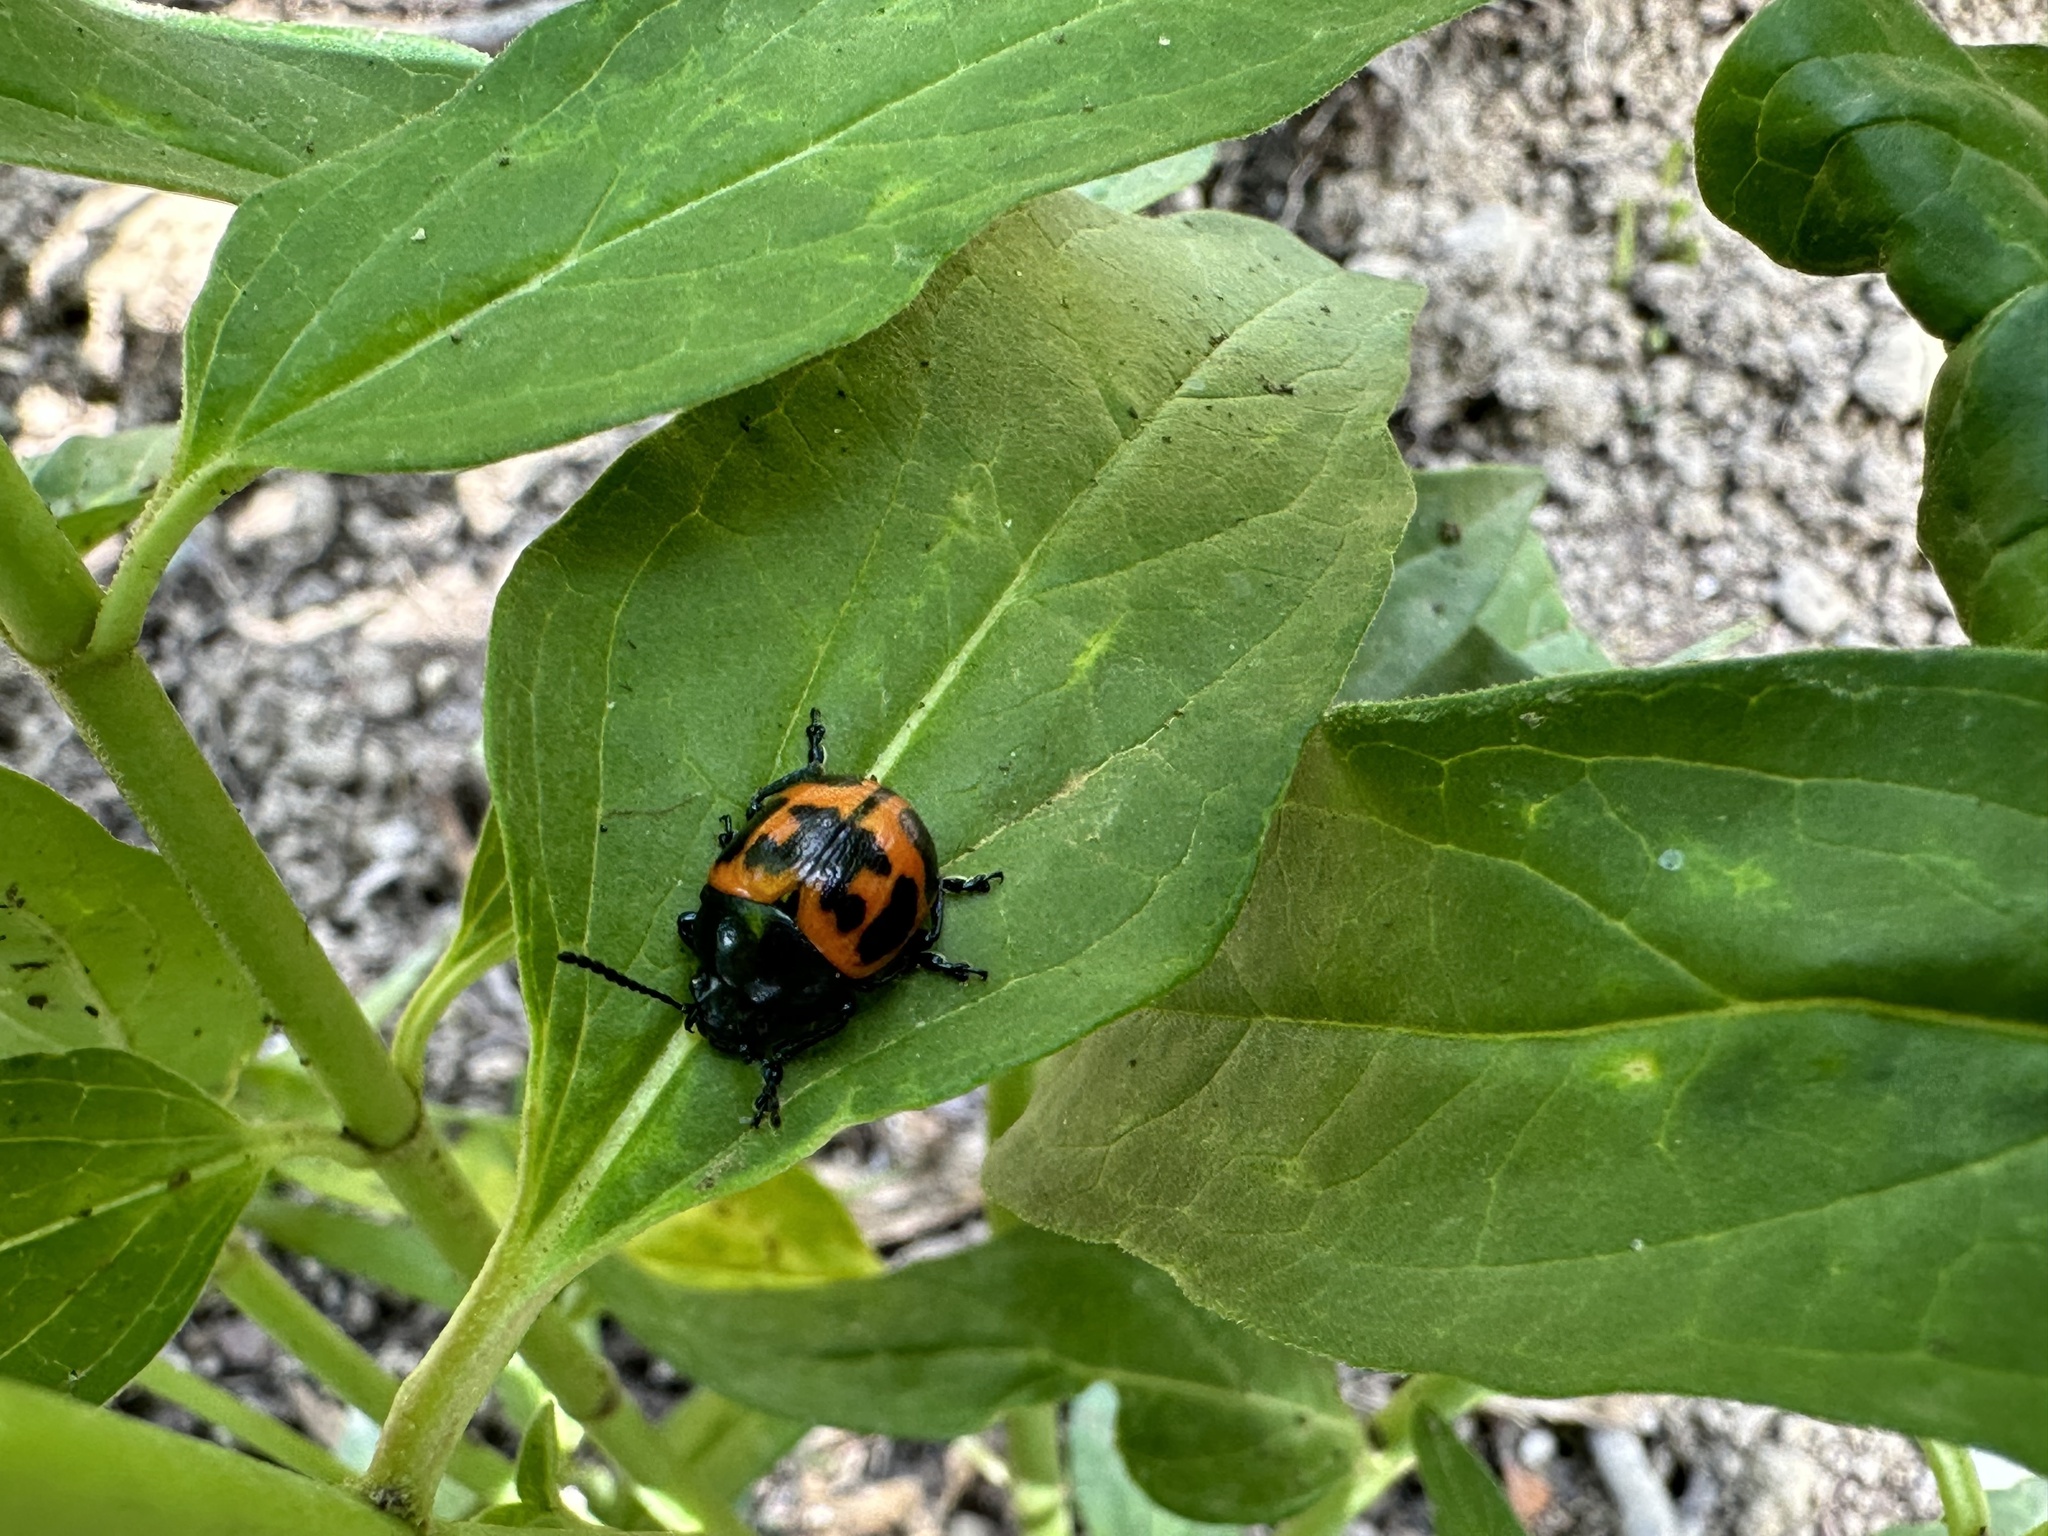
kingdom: Animalia
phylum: Arthropoda
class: Insecta
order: Coleoptera
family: Chrysomelidae
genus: Labidomera
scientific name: Labidomera clivicollis
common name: Swamp milkweed leaf beetle
